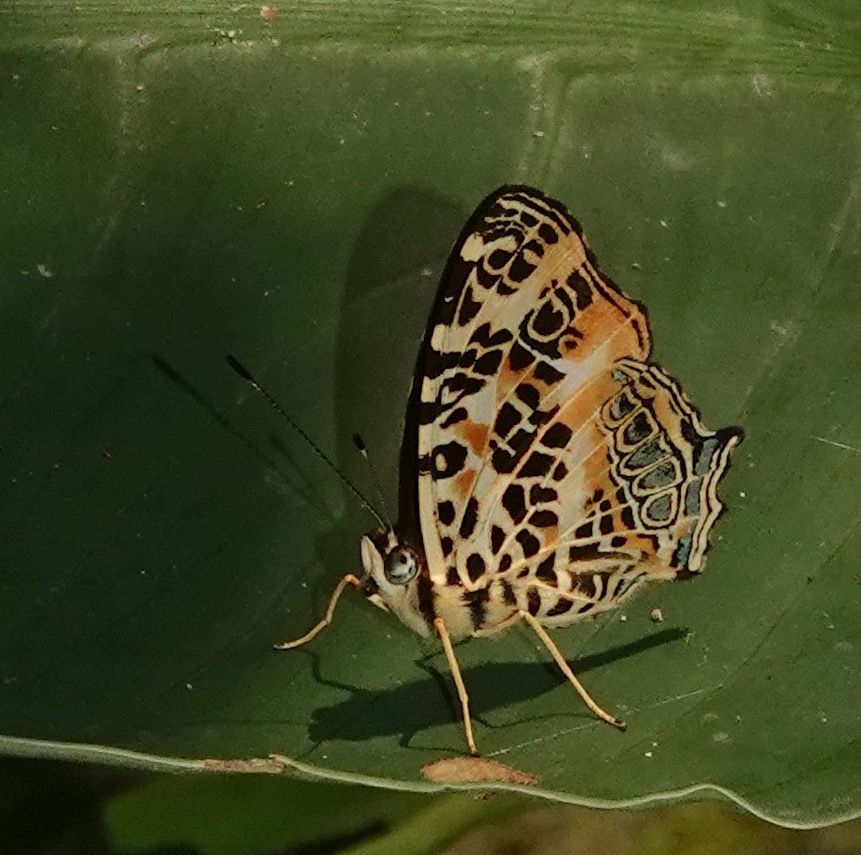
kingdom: Animalia
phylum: Arthropoda
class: Insecta
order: Lepidoptera
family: Nymphalidae
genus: Symbrenthia
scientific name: Symbrenthia hypselis
